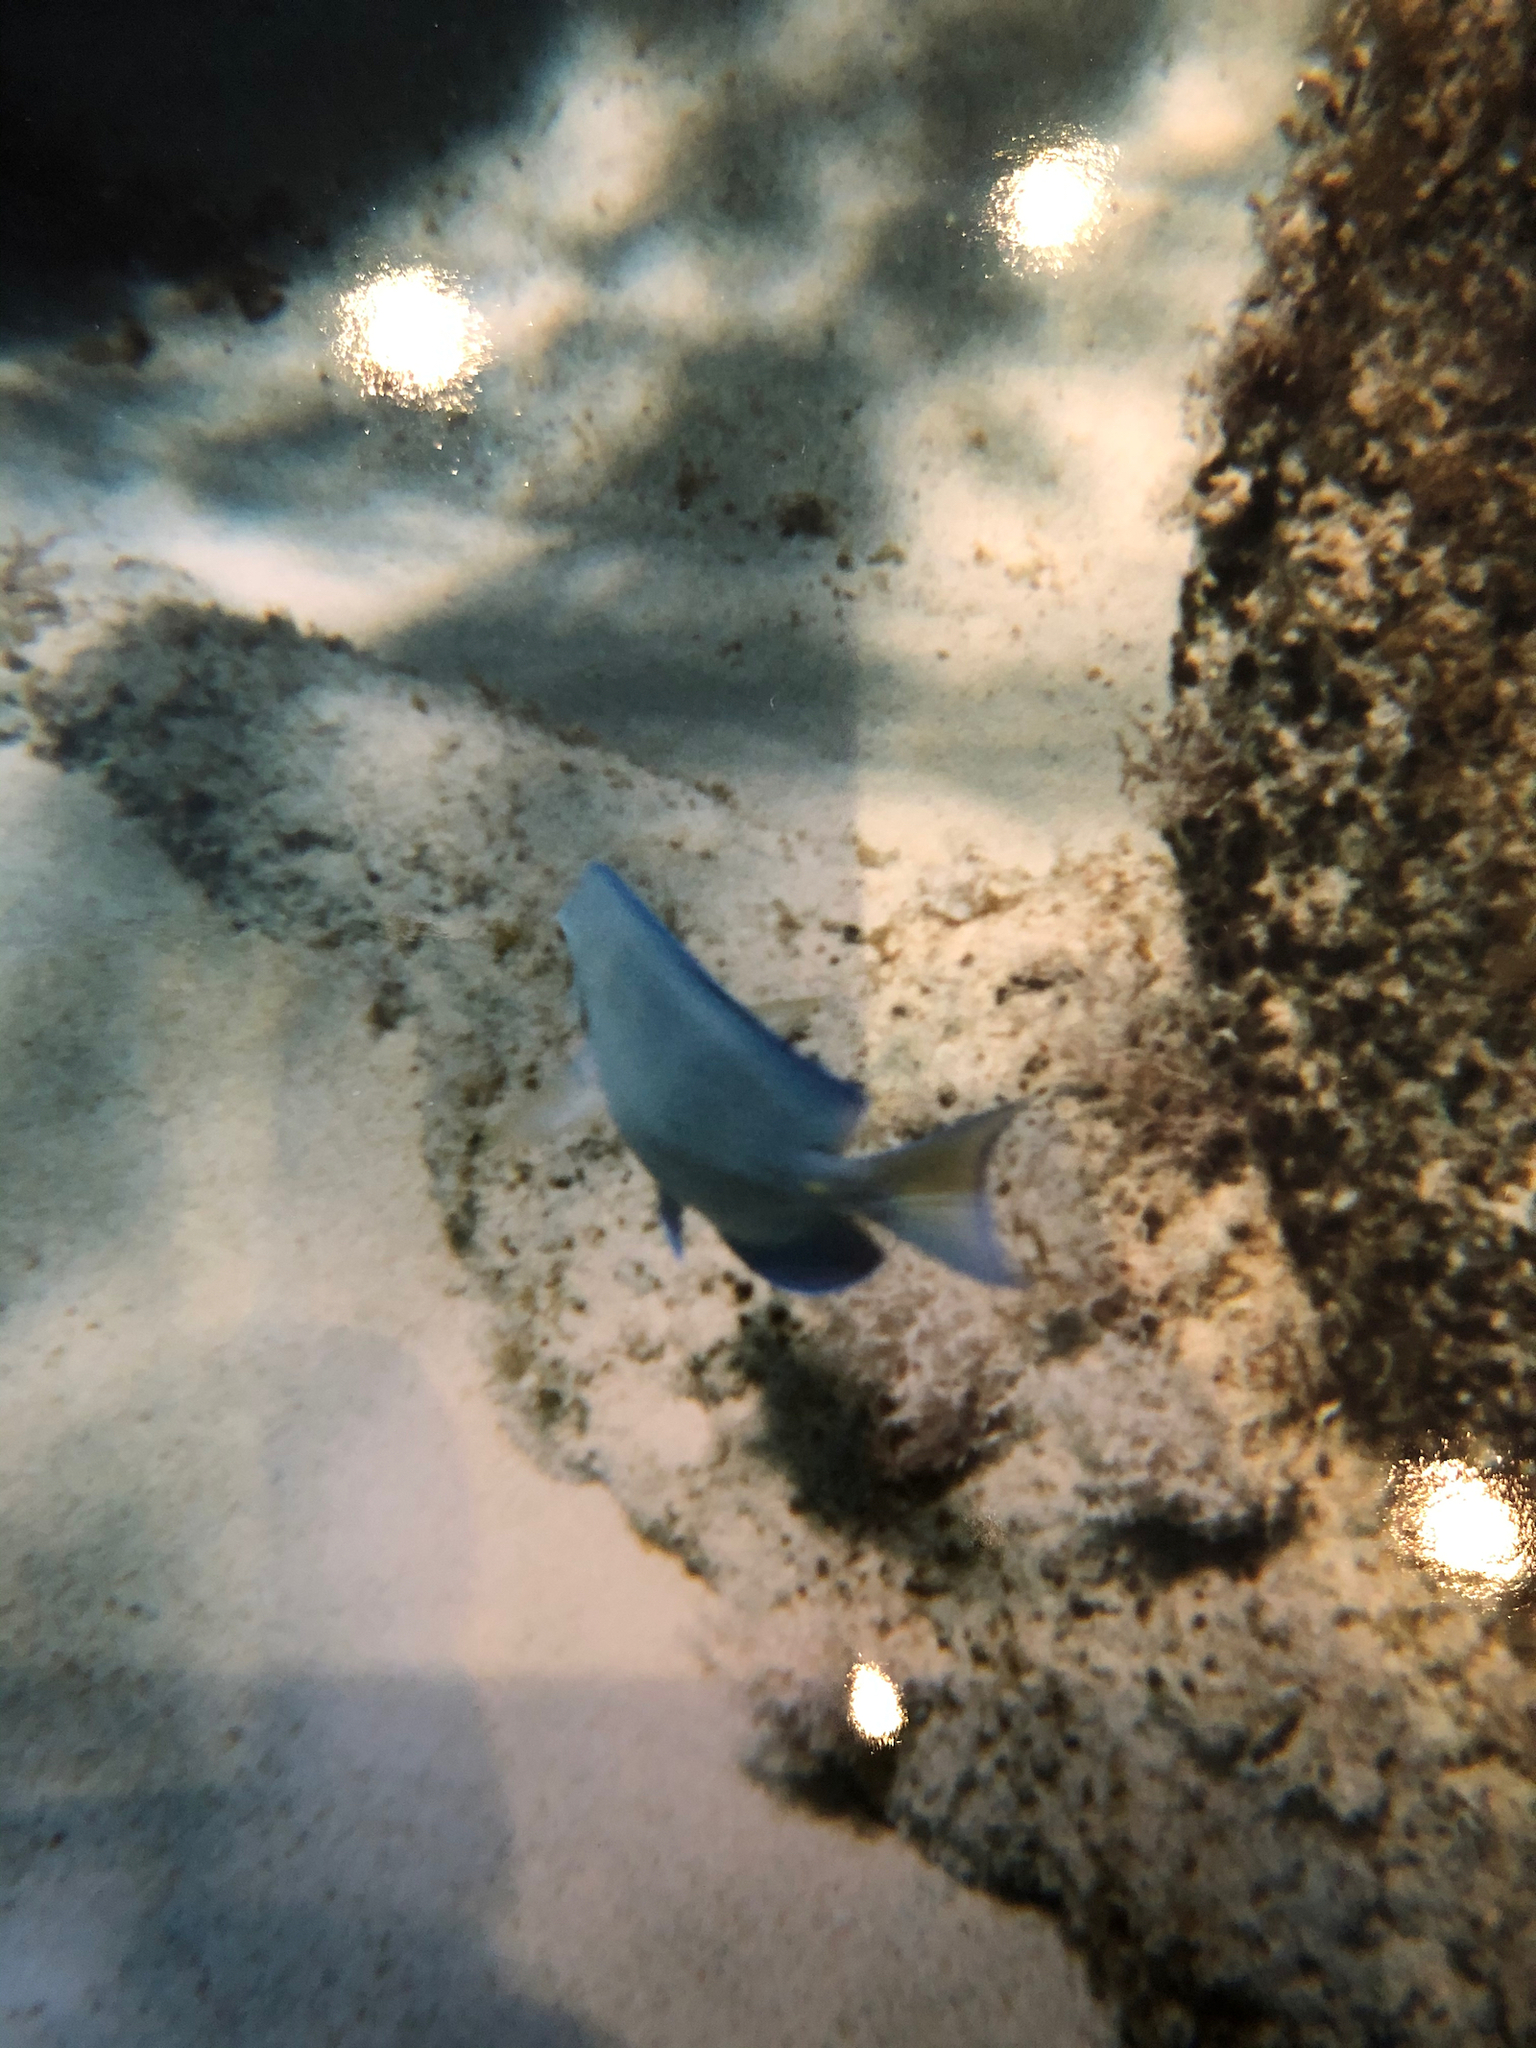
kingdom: Animalia
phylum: Chordata
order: Perciformes
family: Acanthuridae
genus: Acanthurus
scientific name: Acanthurus coeruleus
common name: Blue tang
